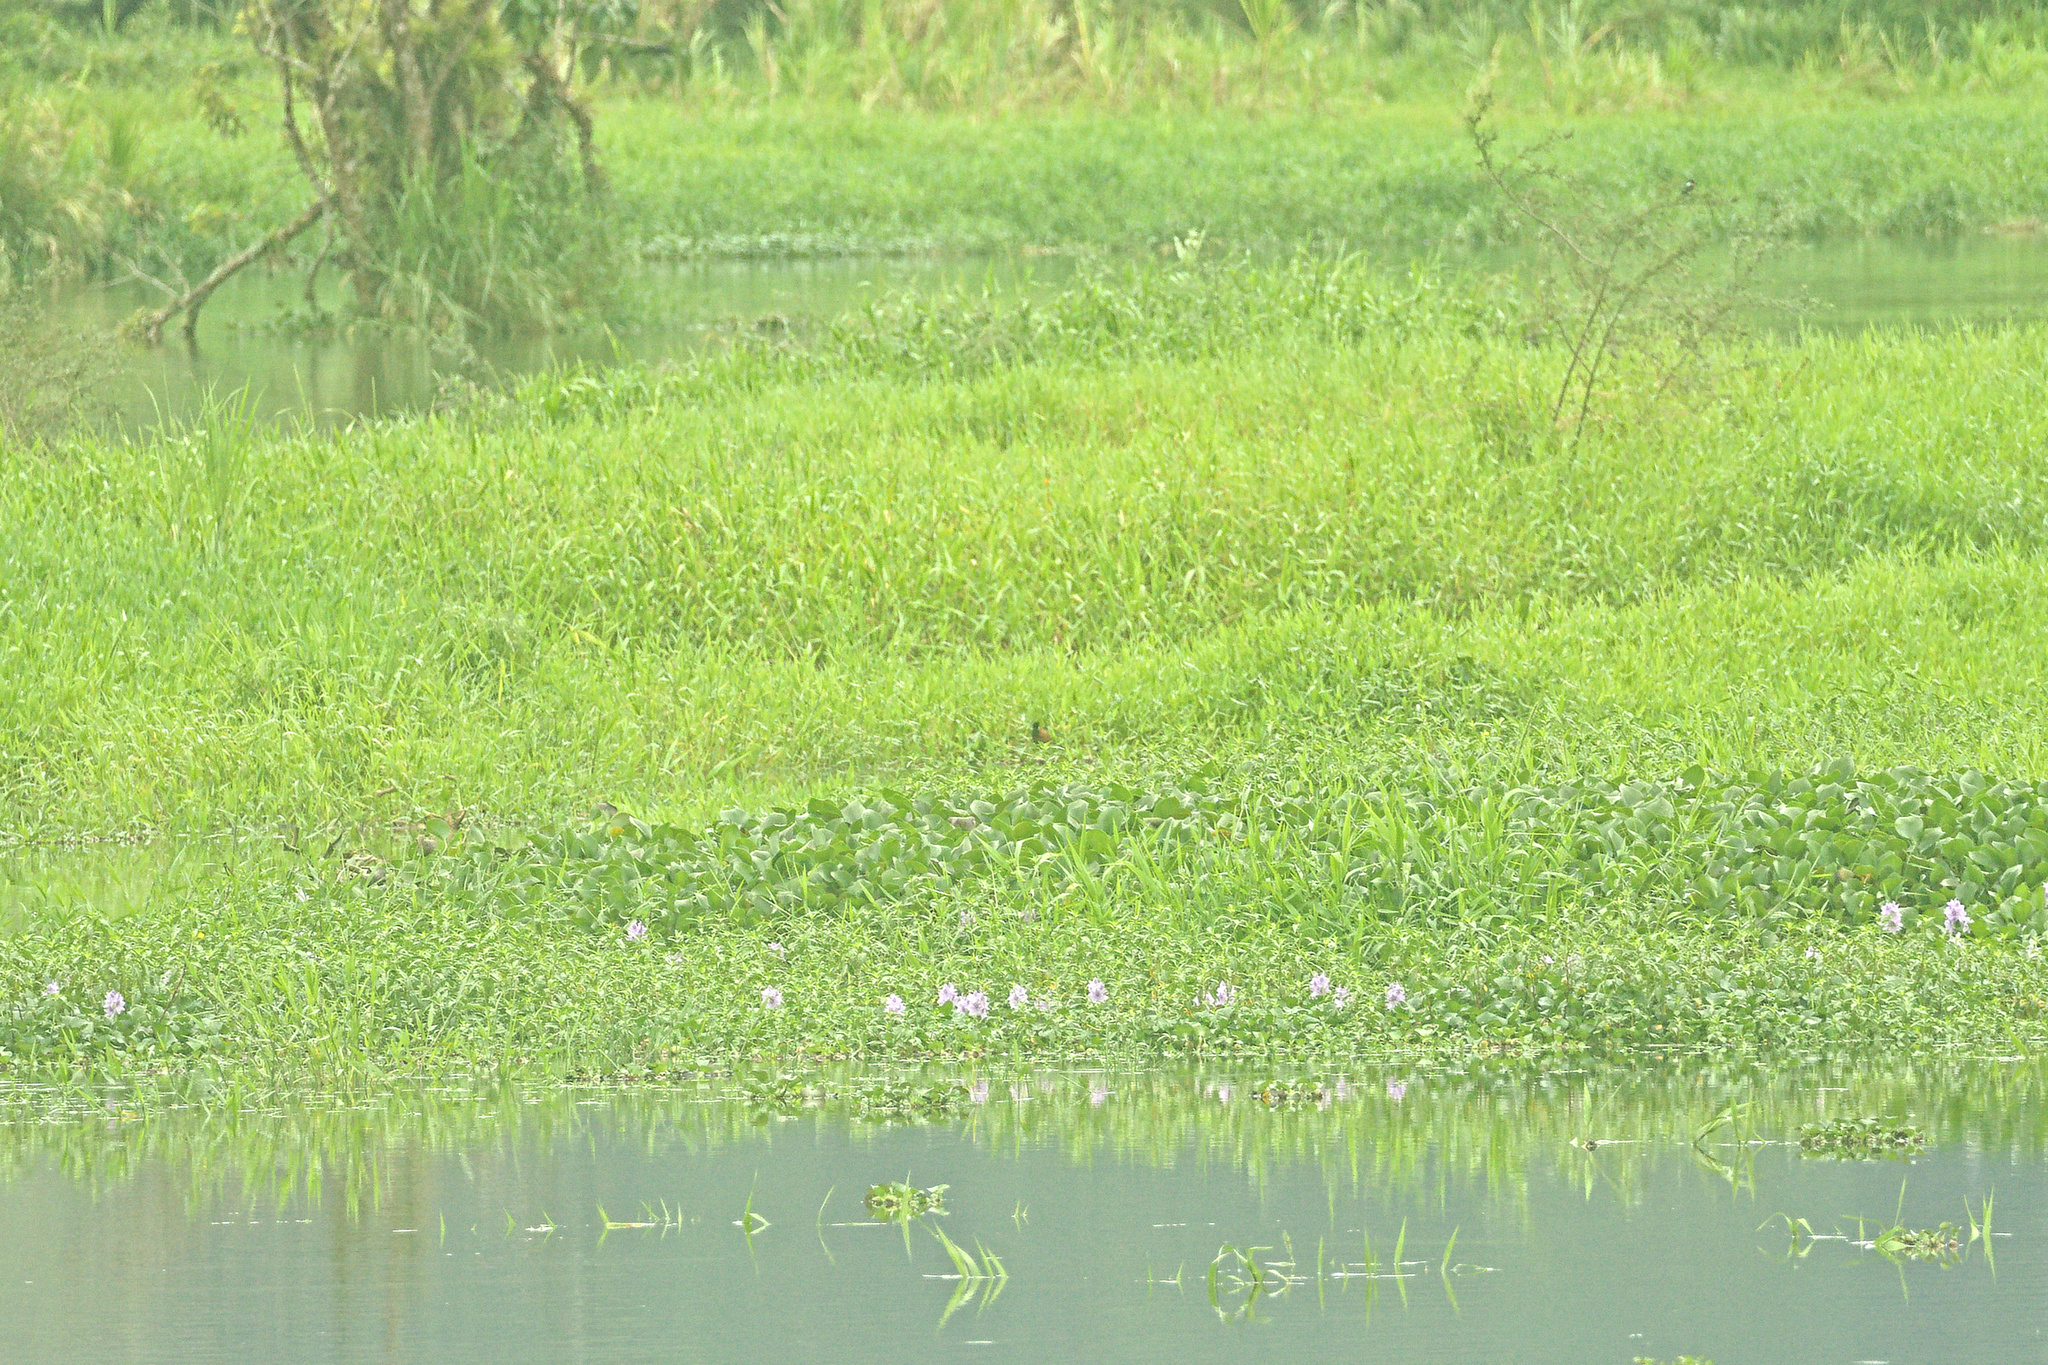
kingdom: Animalia
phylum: Chordata
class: Aves
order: Charadriiformes
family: Jacanidae
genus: Jacana
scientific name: Jacana spinosa
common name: Northern jacana
